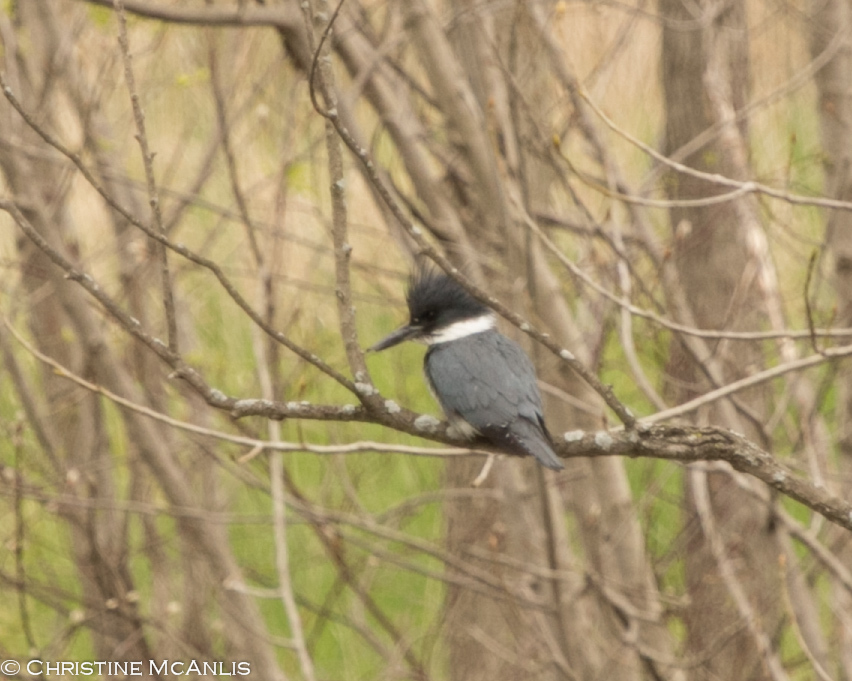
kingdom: Animalia
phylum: Chordata
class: Aves
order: Coraciiformes
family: Alcedinidae
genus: Megaceryle
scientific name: Megaceryle alcyon
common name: Belted kingfisher
